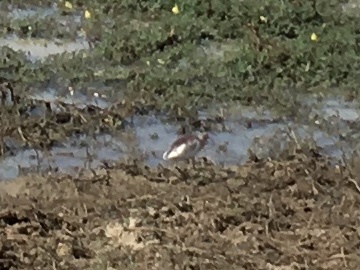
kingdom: Animalia
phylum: Chordata
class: Aves
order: Pelecaniformes
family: Ardeidae
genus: Ardeola
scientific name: Ardeola grayii
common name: Indian pond heron
